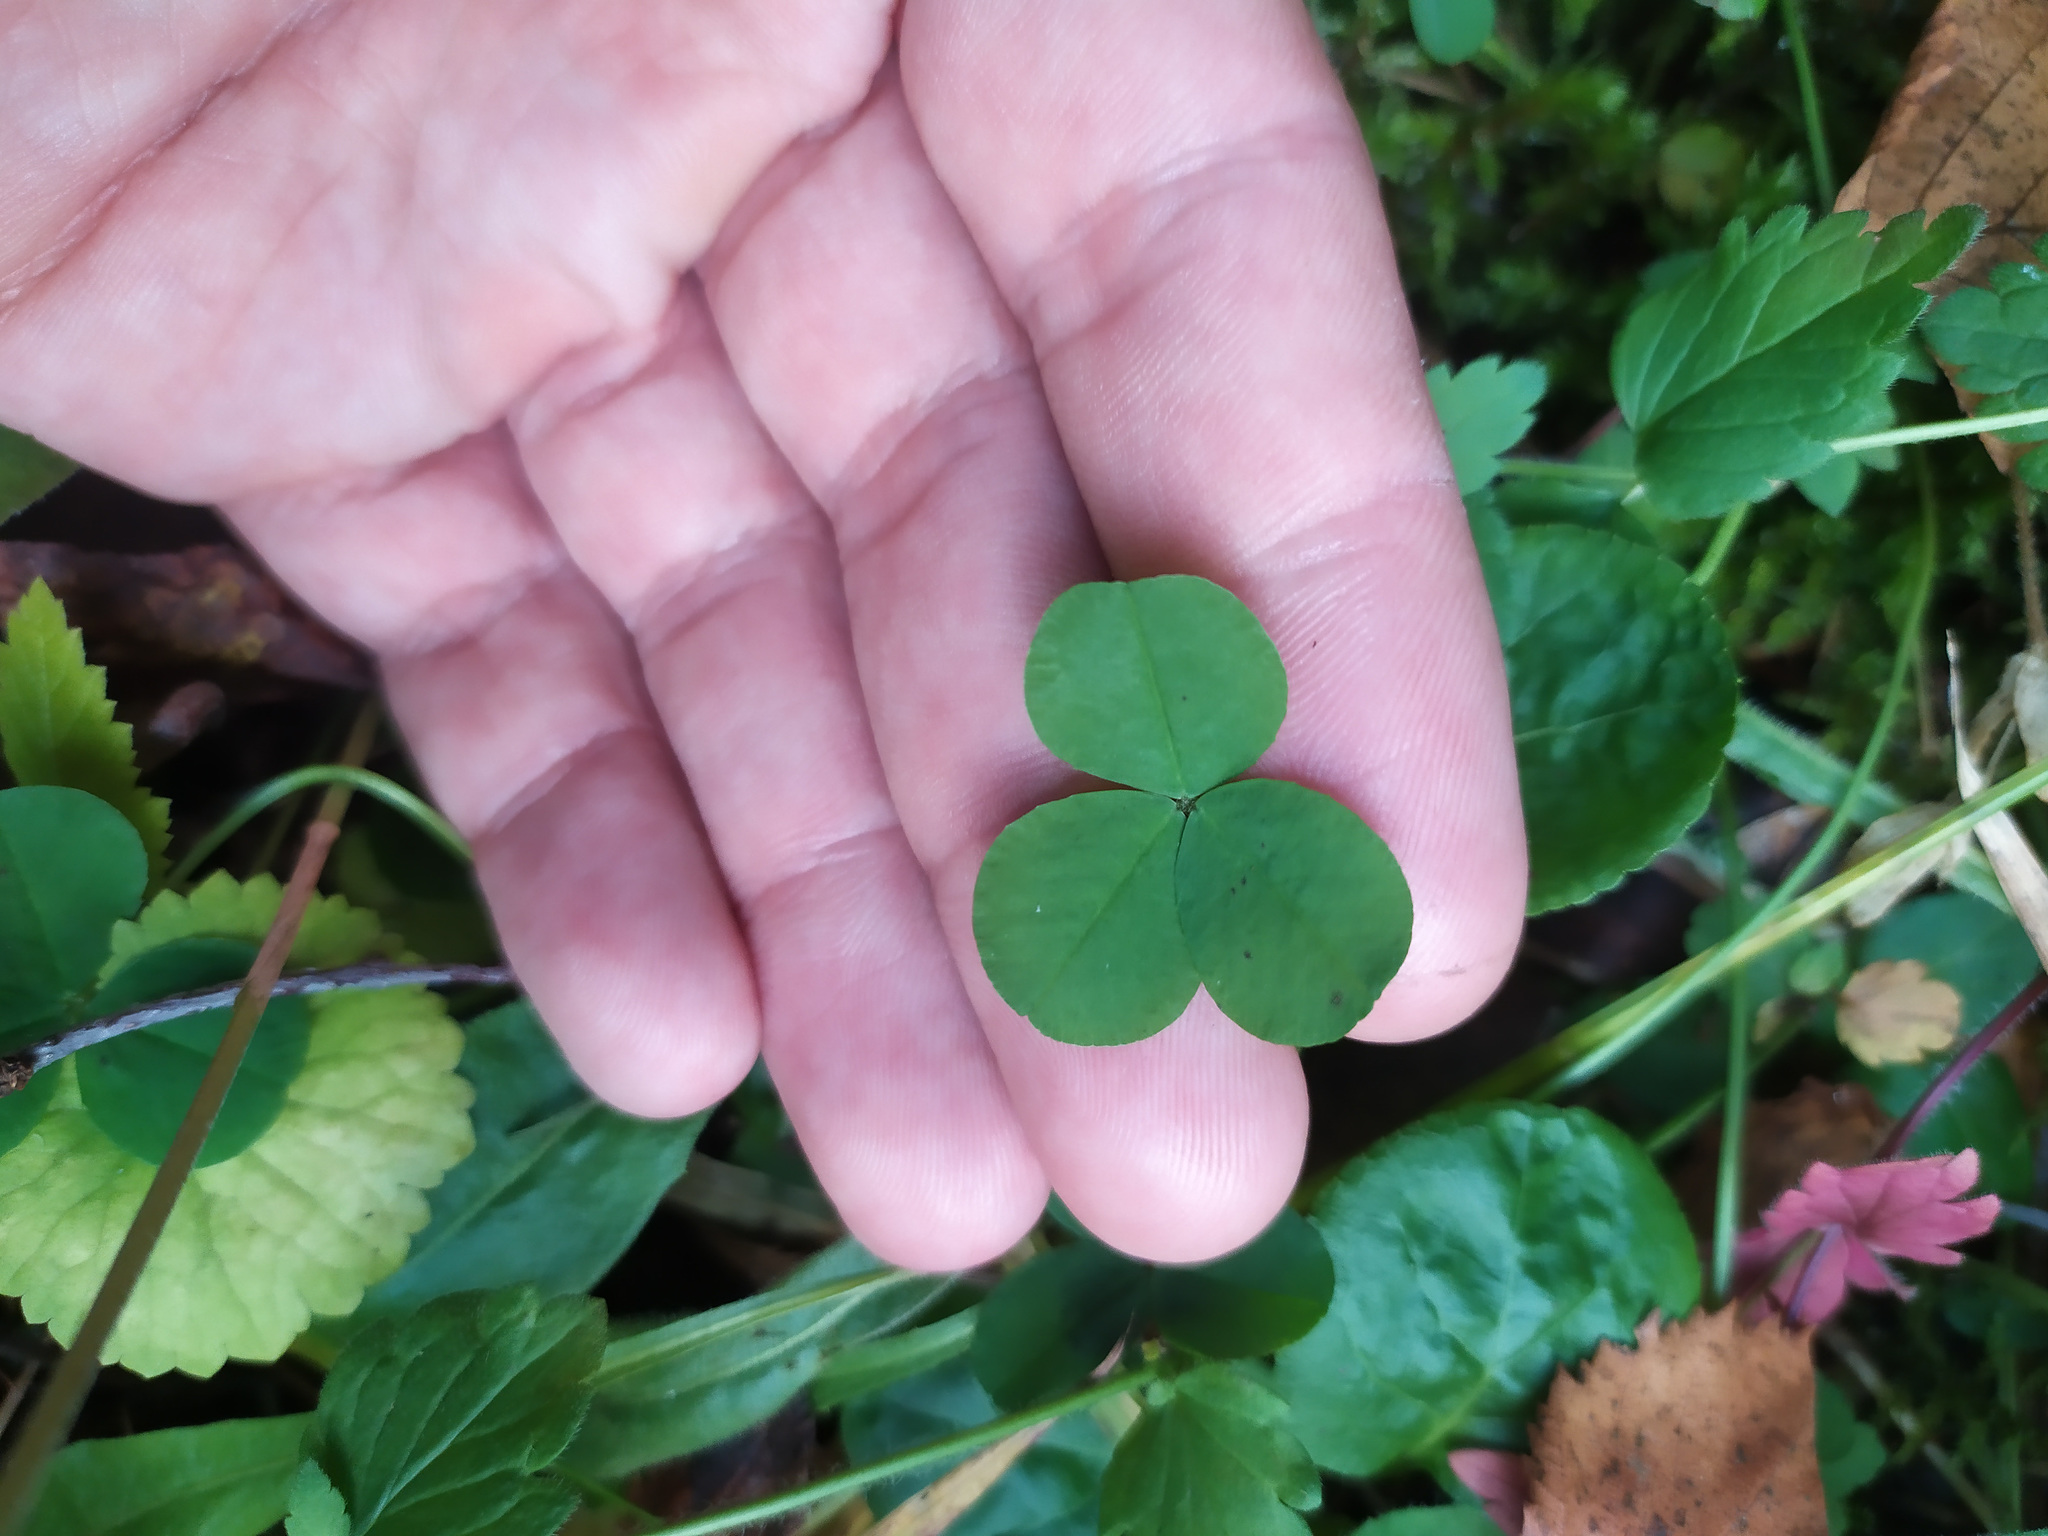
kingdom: Plantae
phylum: Tracheophyta
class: Magnoliopsida
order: Fabales
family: Fabaceae
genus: Trifolium
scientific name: Trifolium repens
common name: White clover
